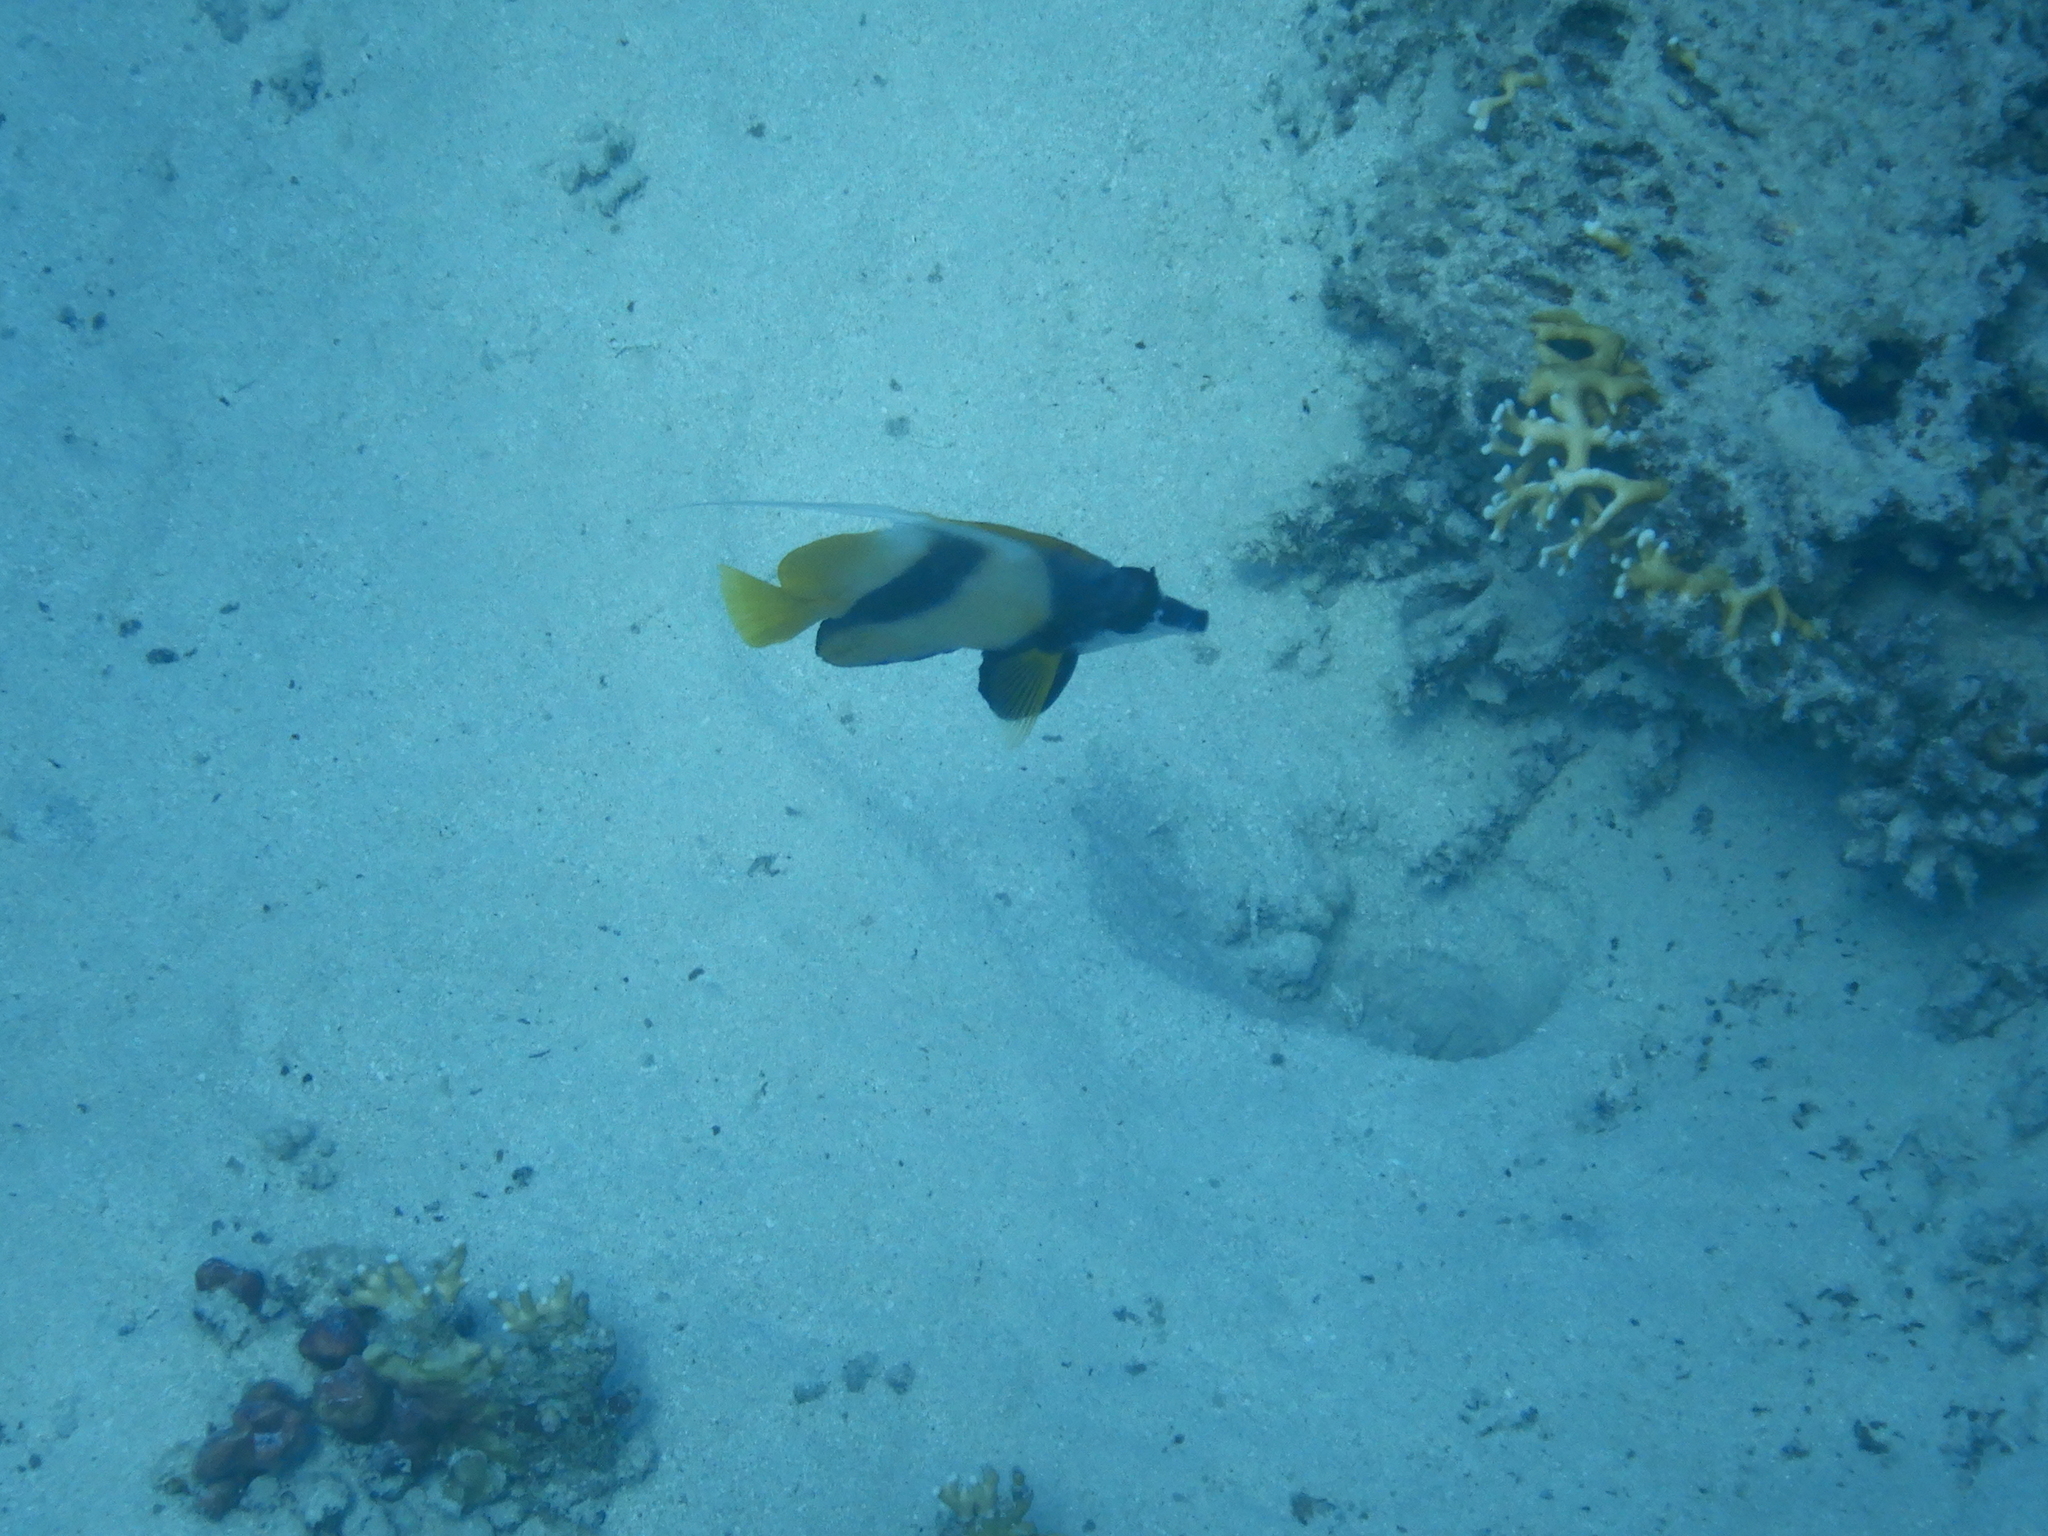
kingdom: Animalia
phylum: Chordata
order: Perciformes
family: Chaetodontidae
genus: Heniochus
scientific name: Heniochus intermedius
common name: Red sea bannerfish
